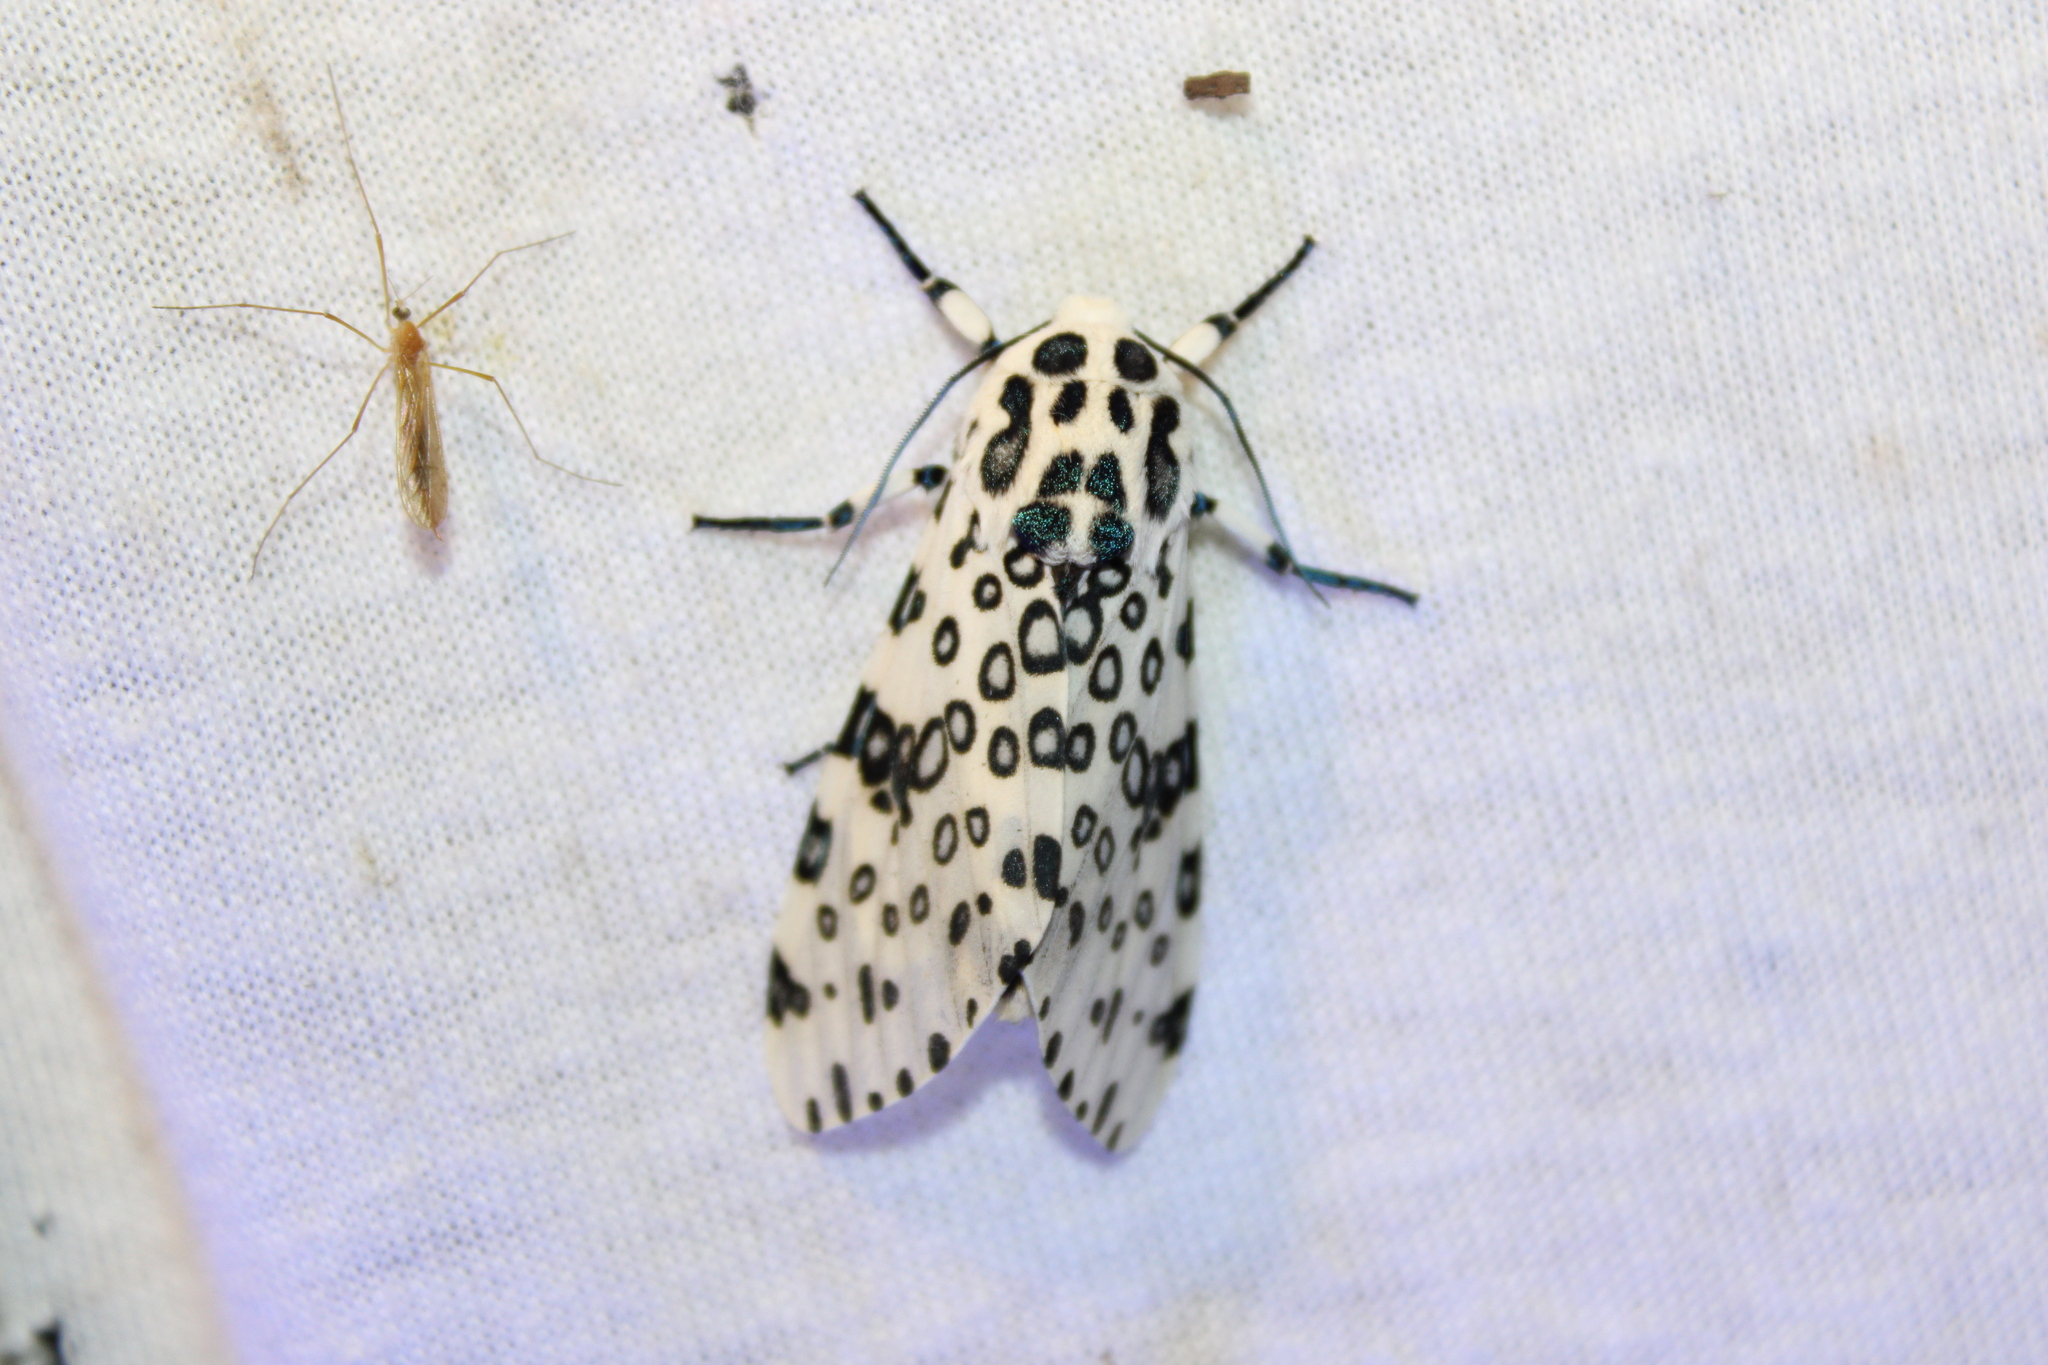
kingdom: Animalia
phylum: Arthropoda
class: Insecta
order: Lepidoptera
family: Erebidae
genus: Hypercompe
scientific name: Hypercompe scribonia
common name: Giant leopard moth
